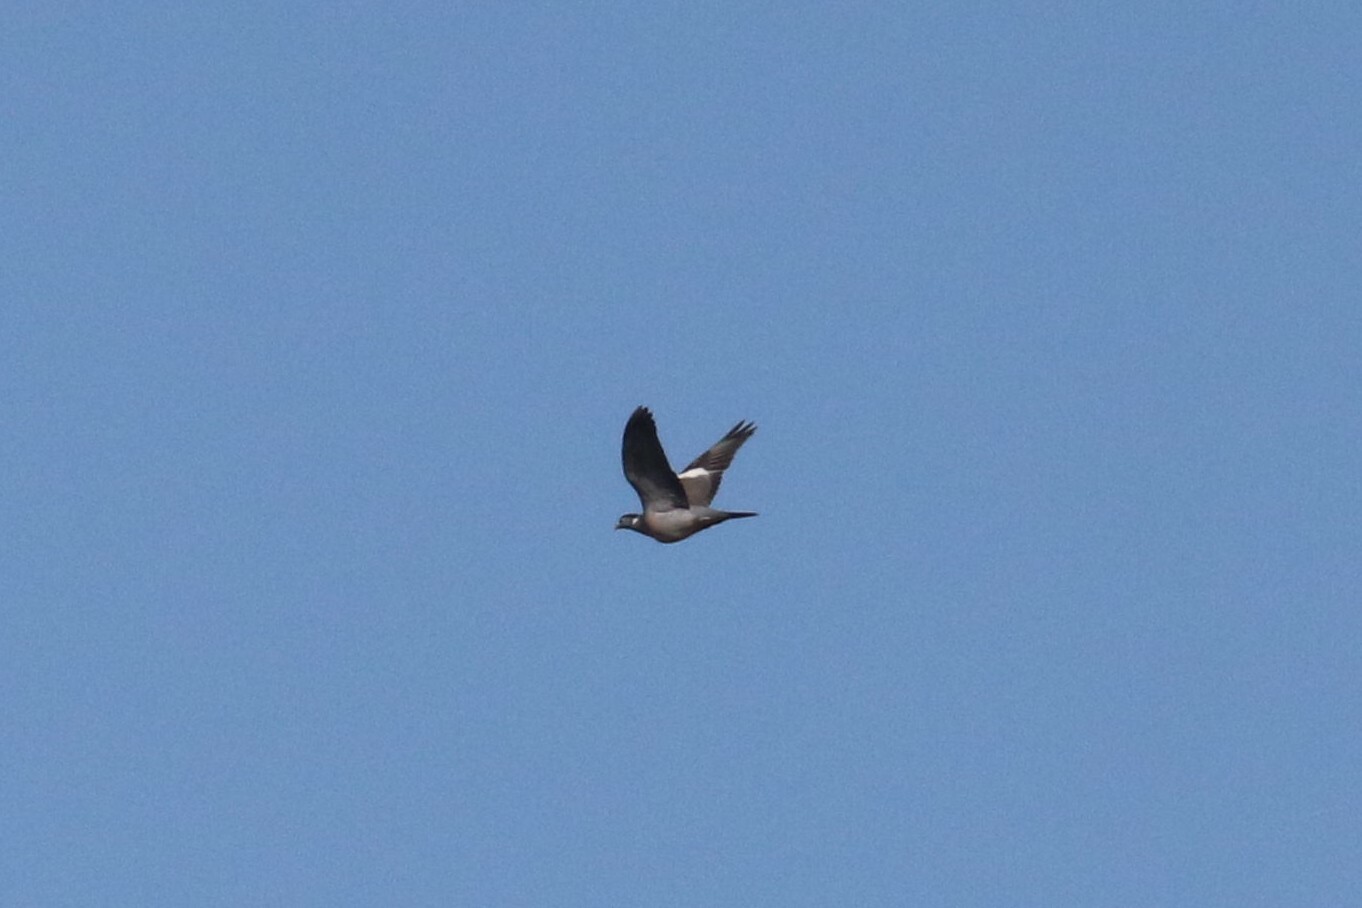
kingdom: Animalia
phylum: Chordata
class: Aves
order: Columbiformes
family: Columbidae
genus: Columba
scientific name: Columba palumbus
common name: Common wood pigeon
